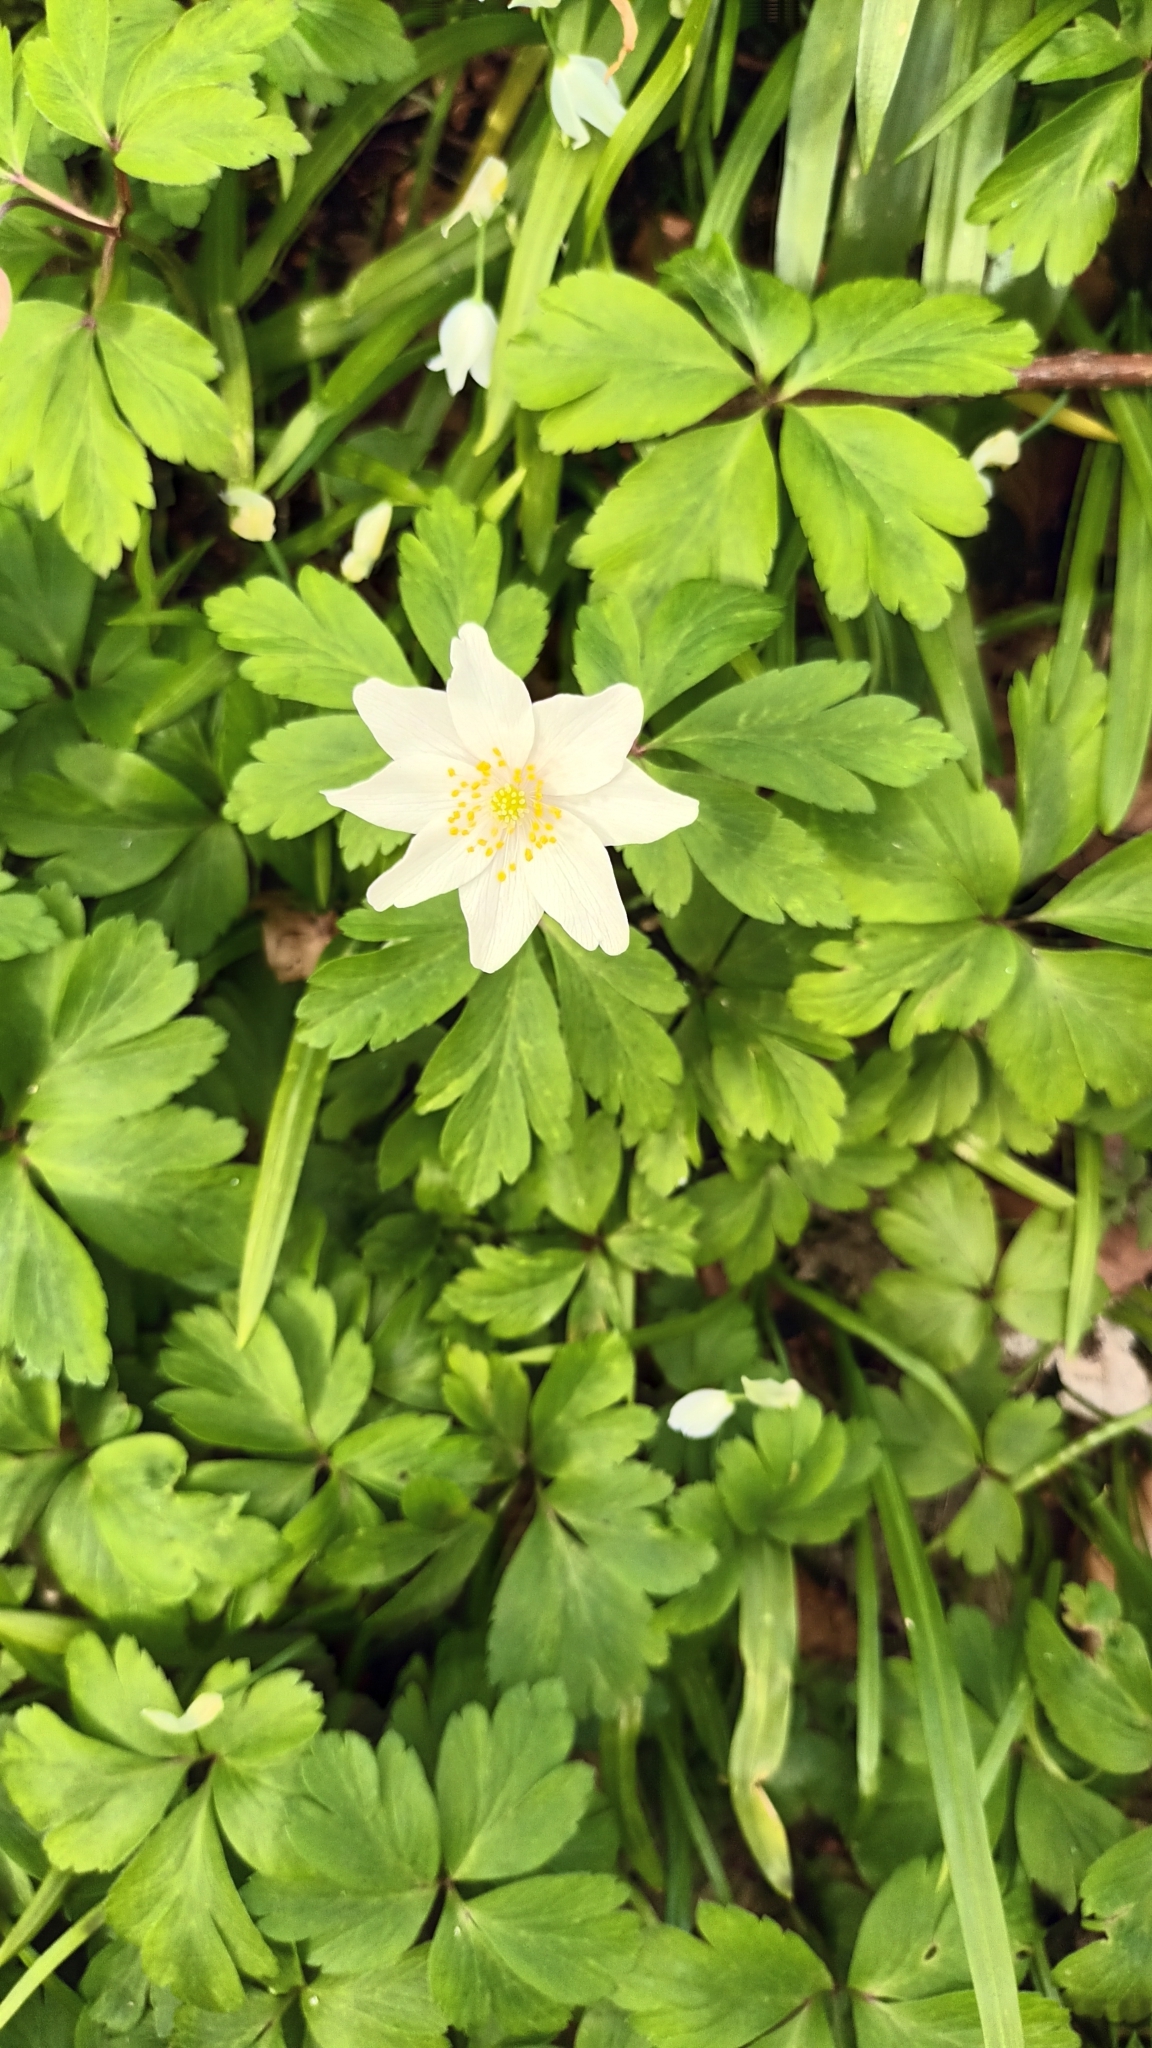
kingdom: Plantae
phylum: Tracheophyta
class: Magnoliopsida
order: Ranunculales
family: Ranunculaceae
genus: Anemone
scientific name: Anemone nemorosa
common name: Wood anemone
